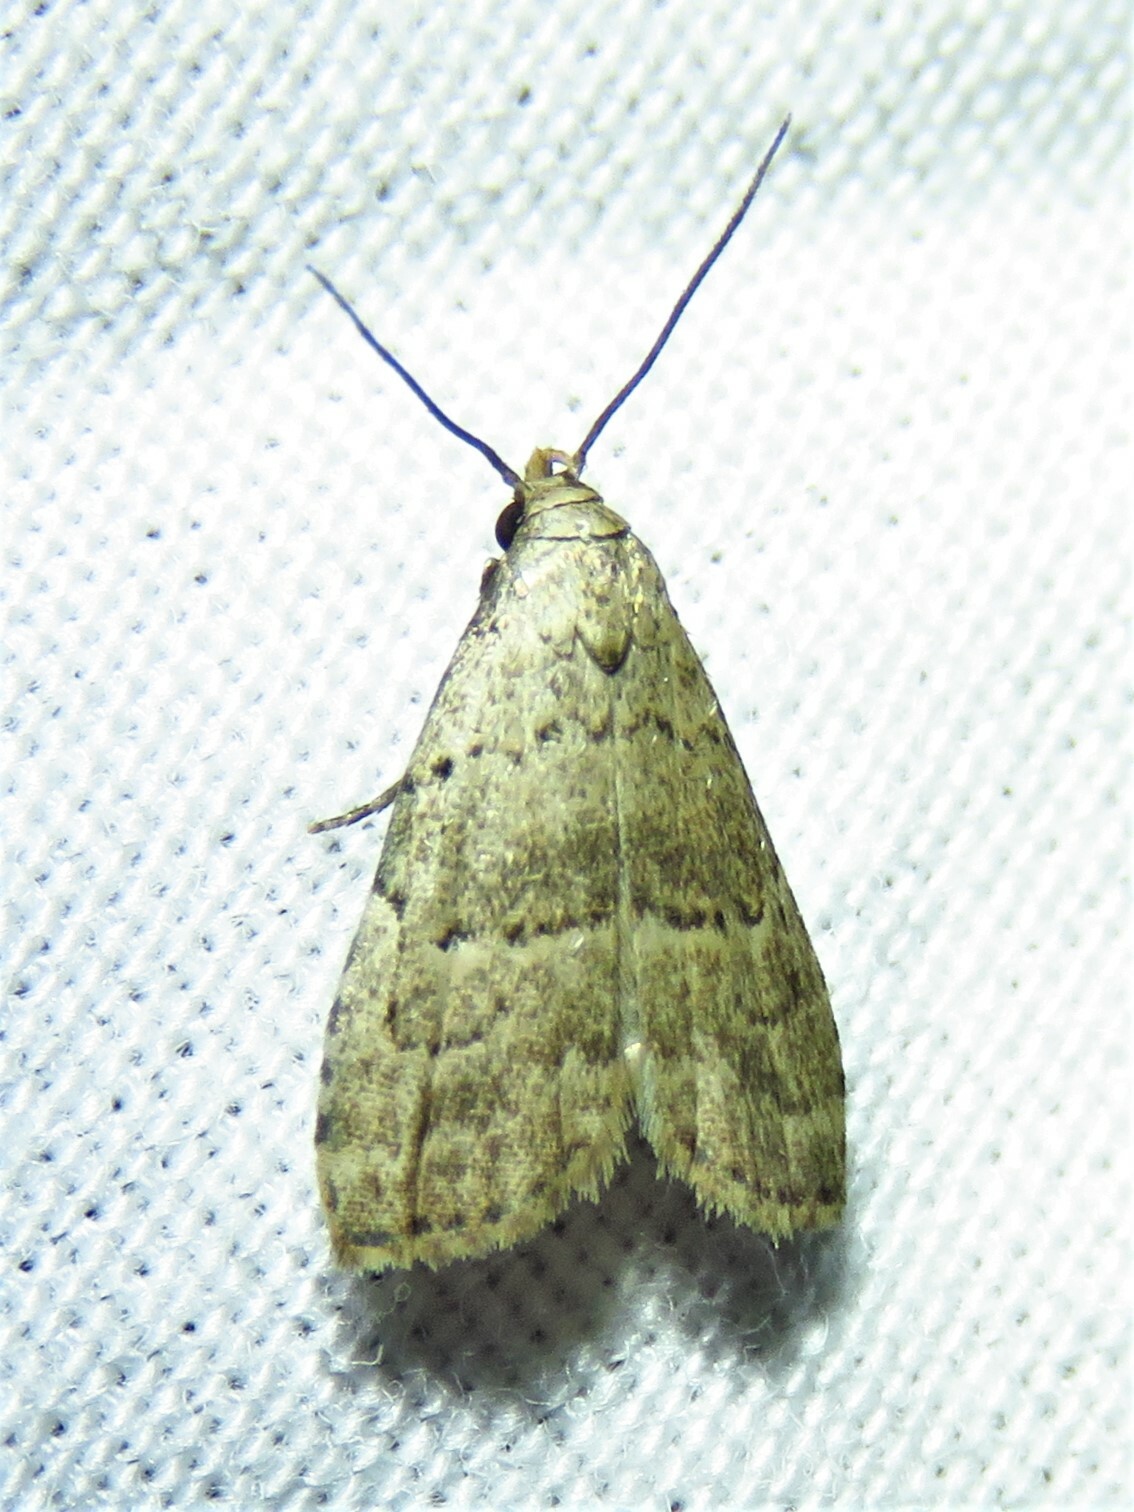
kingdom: Animalia
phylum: Arthropoda
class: Insecta
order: Lepidoptera
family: Erebidae
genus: Hypenodes
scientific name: Hypenodes fractilinea
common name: Broken-line hypenodes moth
